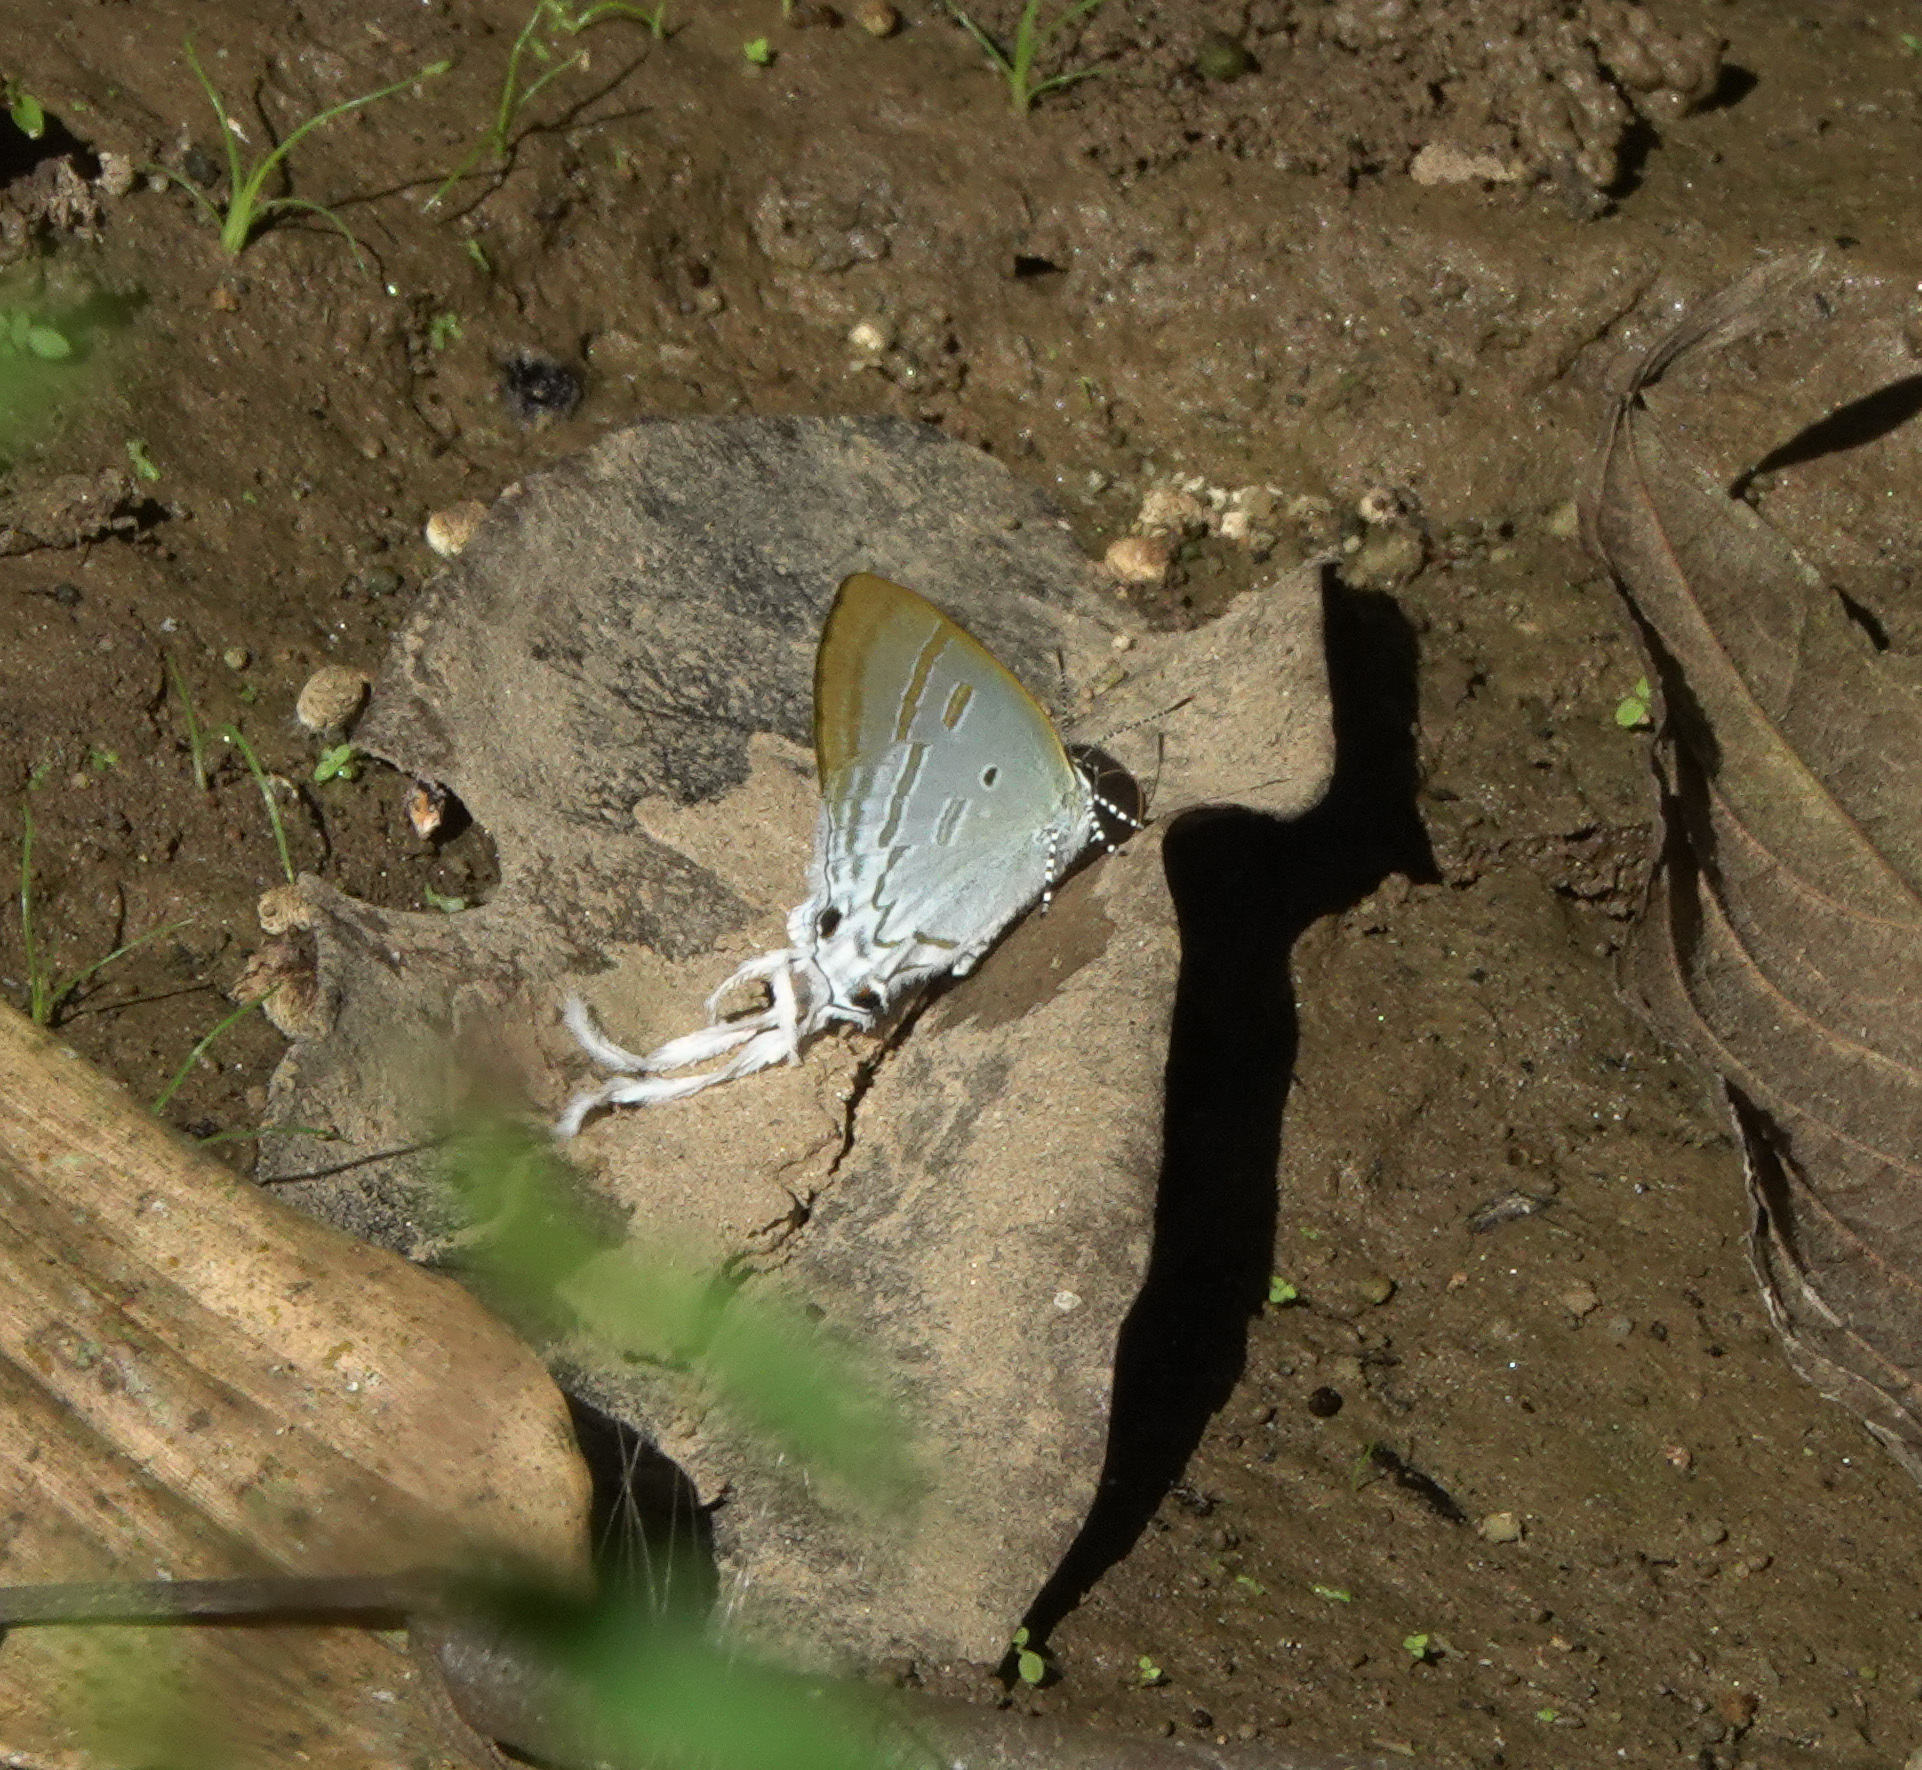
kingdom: Animalia
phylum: Arthropoda
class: Insecta
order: Lepidoptera
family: Lycaenidae
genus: Zeltus
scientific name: Zeltus amasa
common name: Fluffy tit
